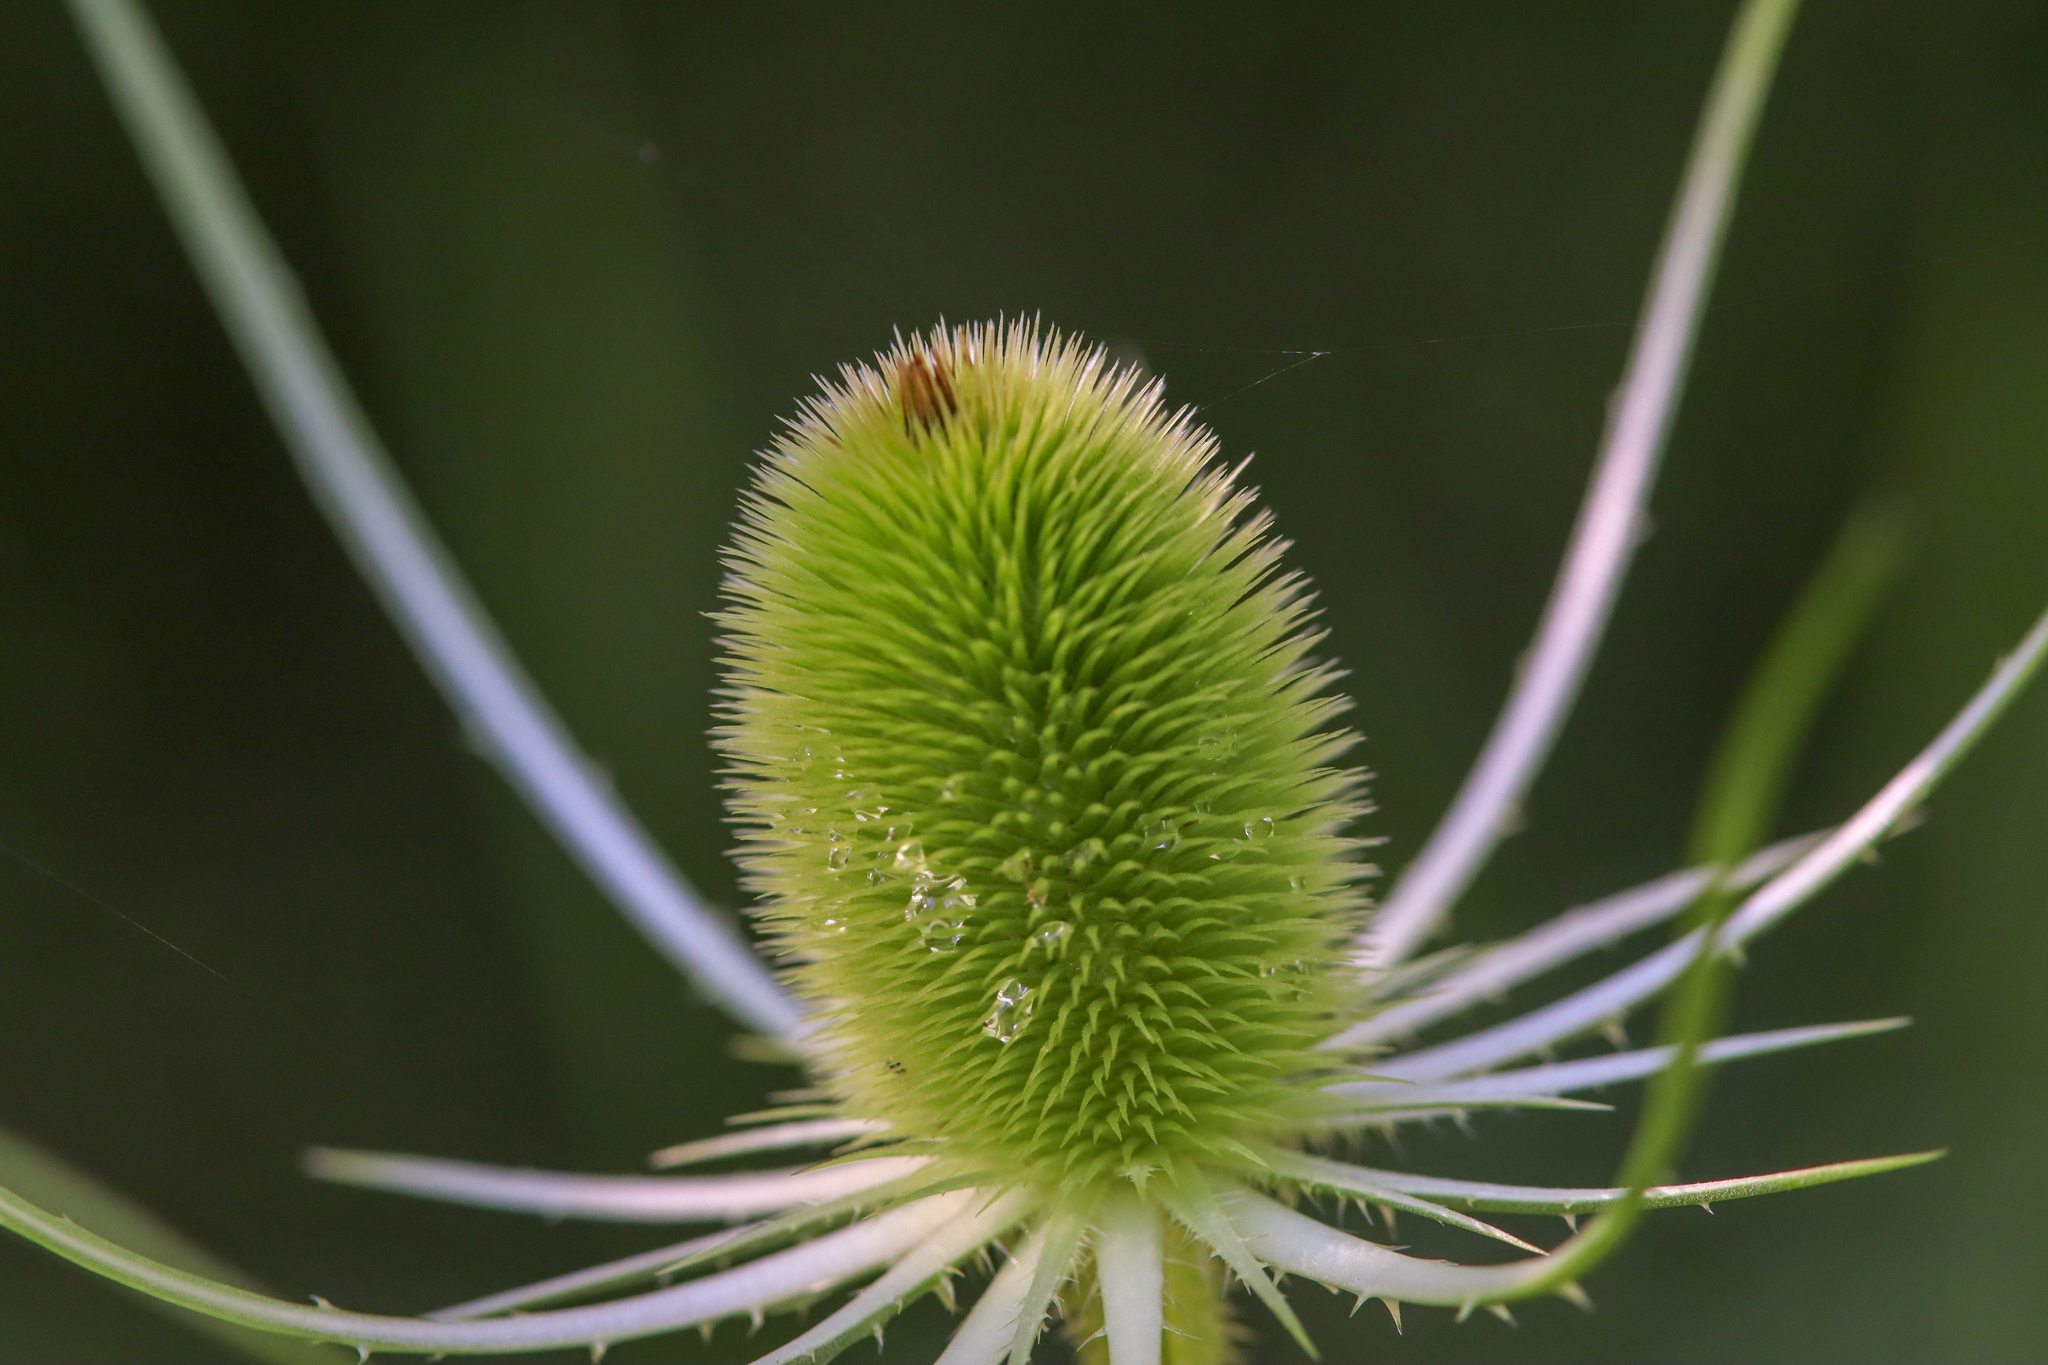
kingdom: Plantae
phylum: Tracheophyta
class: Magnoliopsida
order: Dipsacales
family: Caprifoliaceae
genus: Dipsacus
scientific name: Dipsacus fullonum
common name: Teasel
